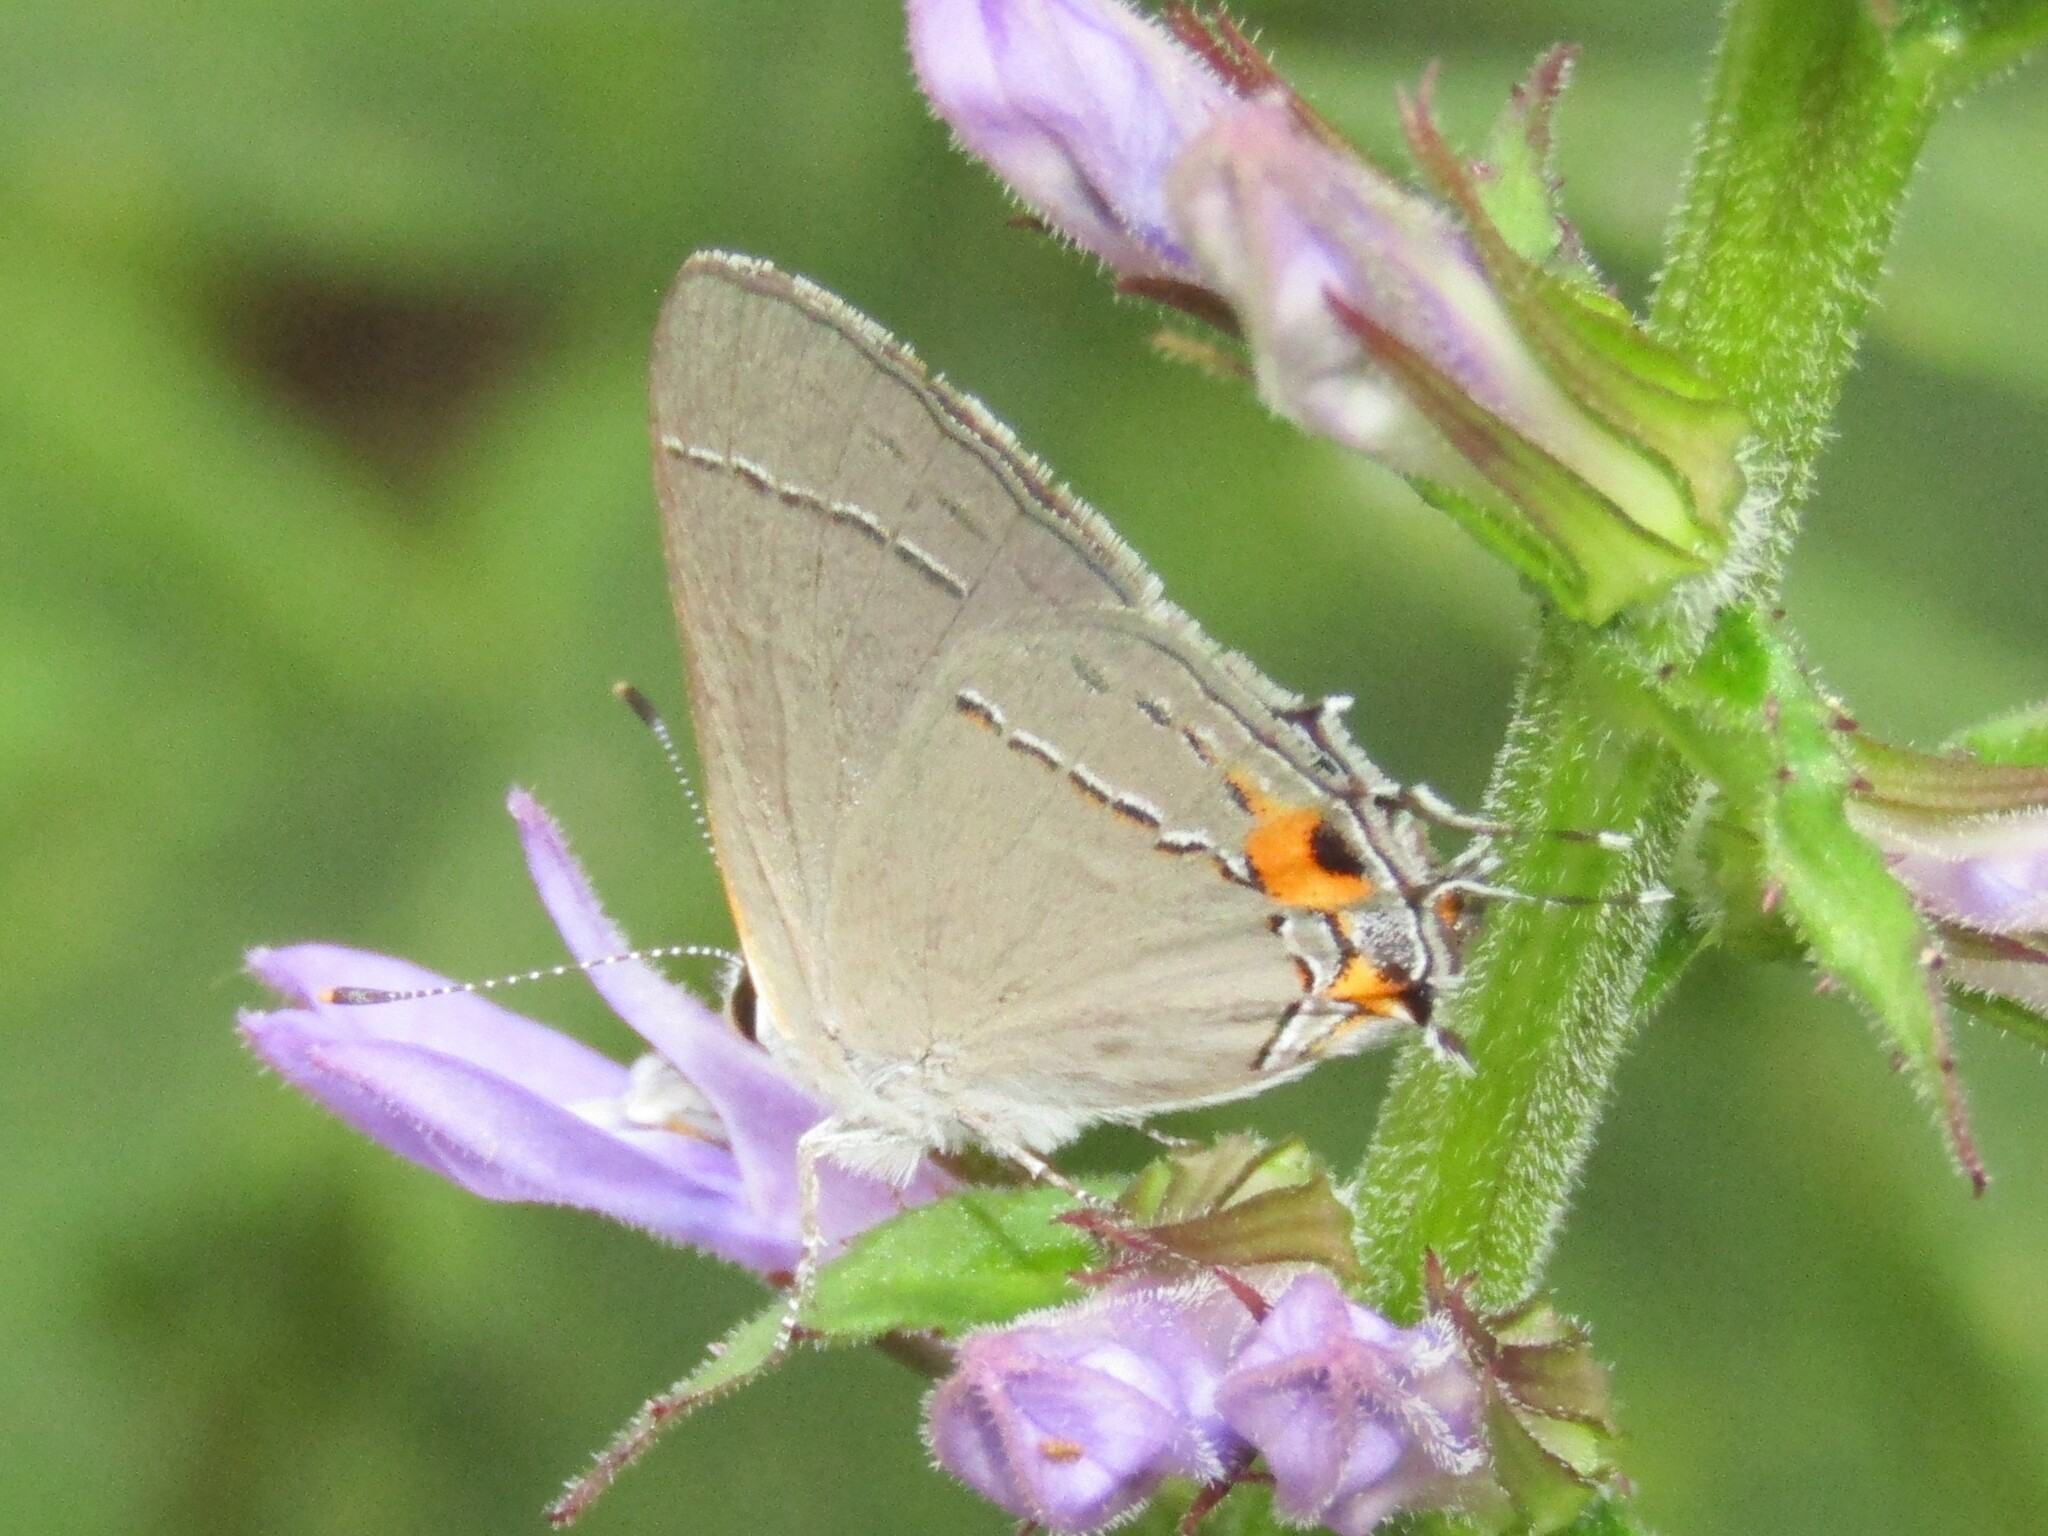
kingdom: Animalia
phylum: Arthropoda
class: Insecta
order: Lepidoptera
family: Lycaenidae
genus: Strymon
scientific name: Strymon melinus
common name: Gray hairstreak
